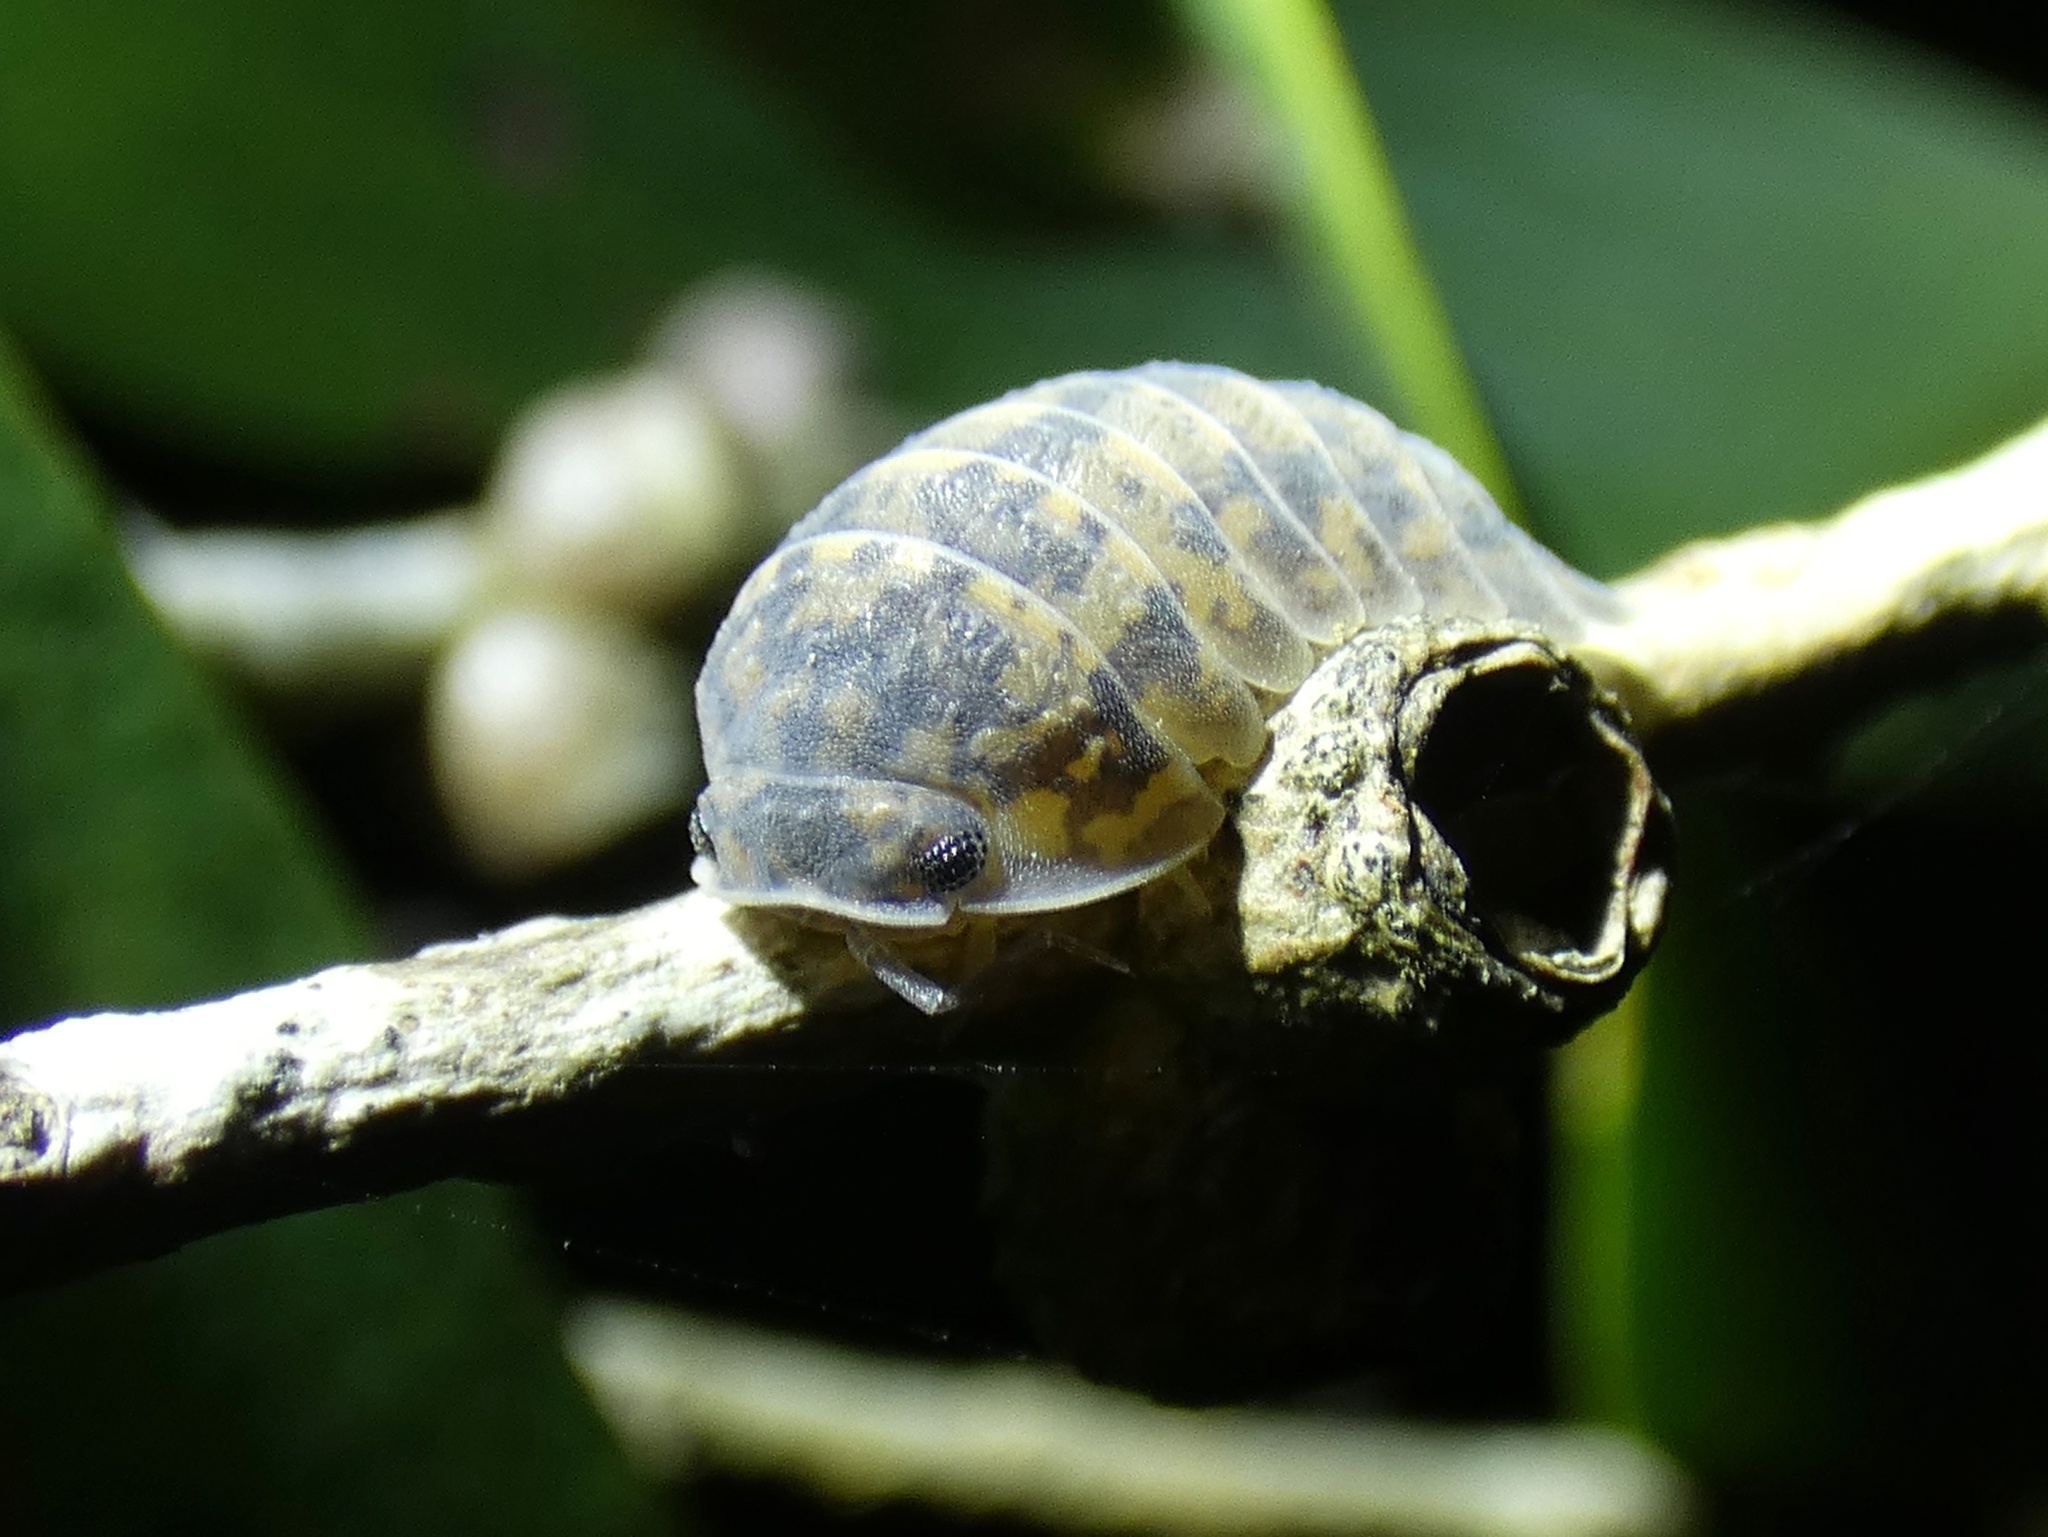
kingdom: Animalia
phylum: Arthropoda
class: Malacostraca
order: Isopoda
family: Armadillidae
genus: Cubaris
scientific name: Cubaris nigroflava
